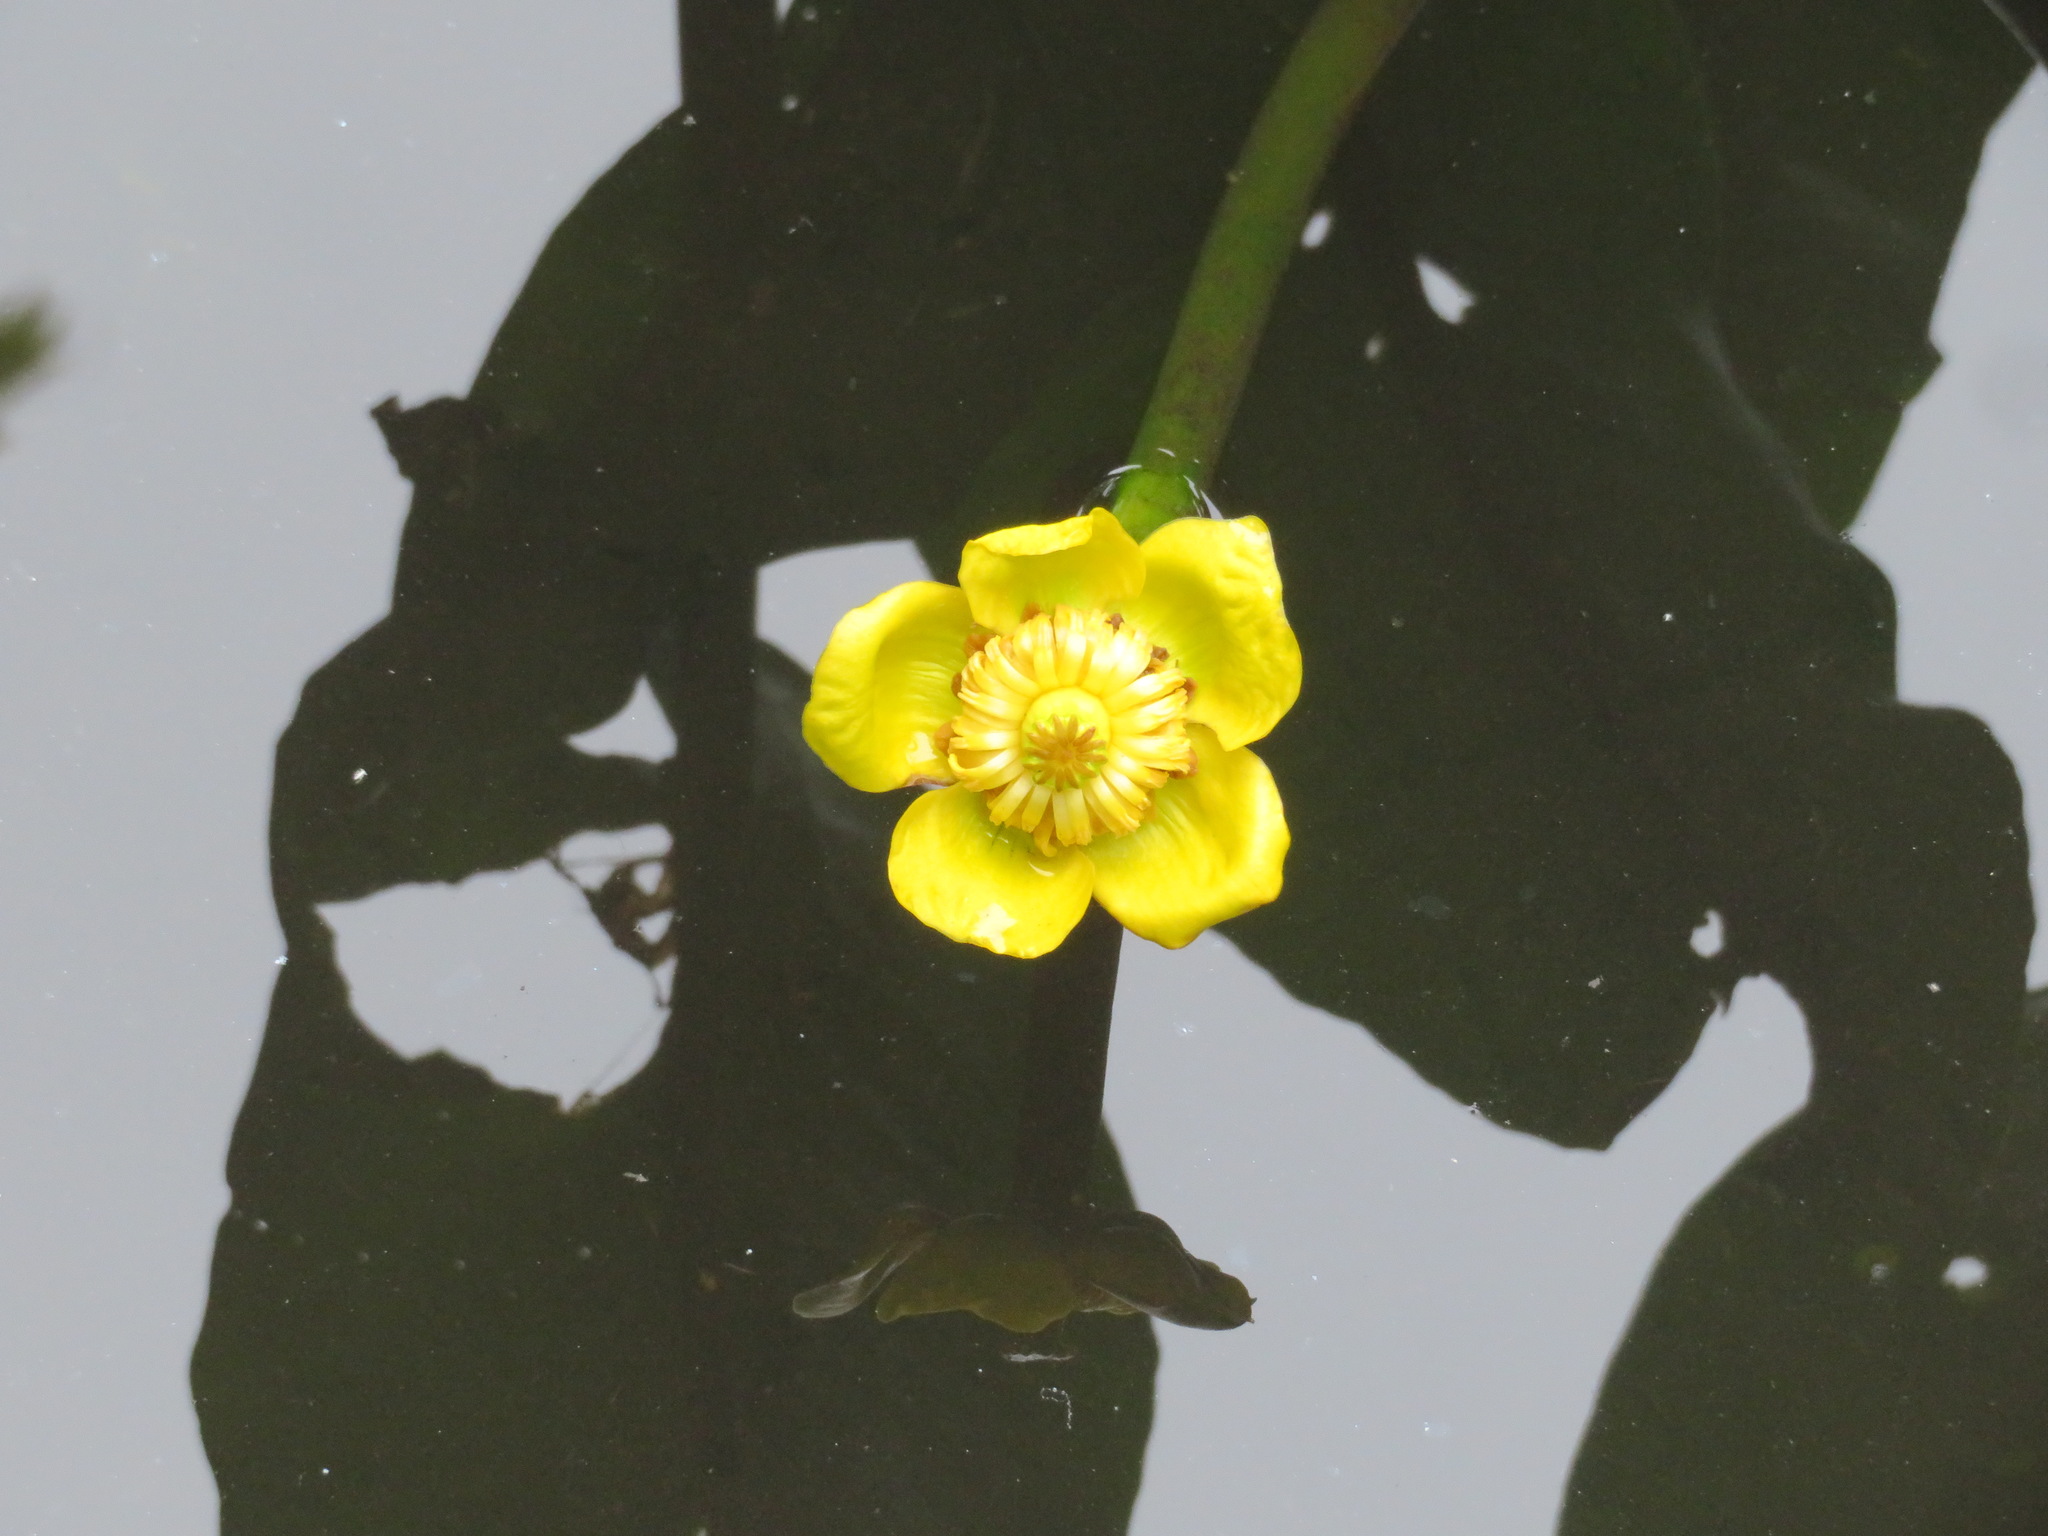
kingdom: Plantae
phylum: Tracheophyta
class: Magnoliopsida
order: Nymphaeales
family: Nymphaeaceae
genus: Nuphar
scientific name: Nuphar japonica
